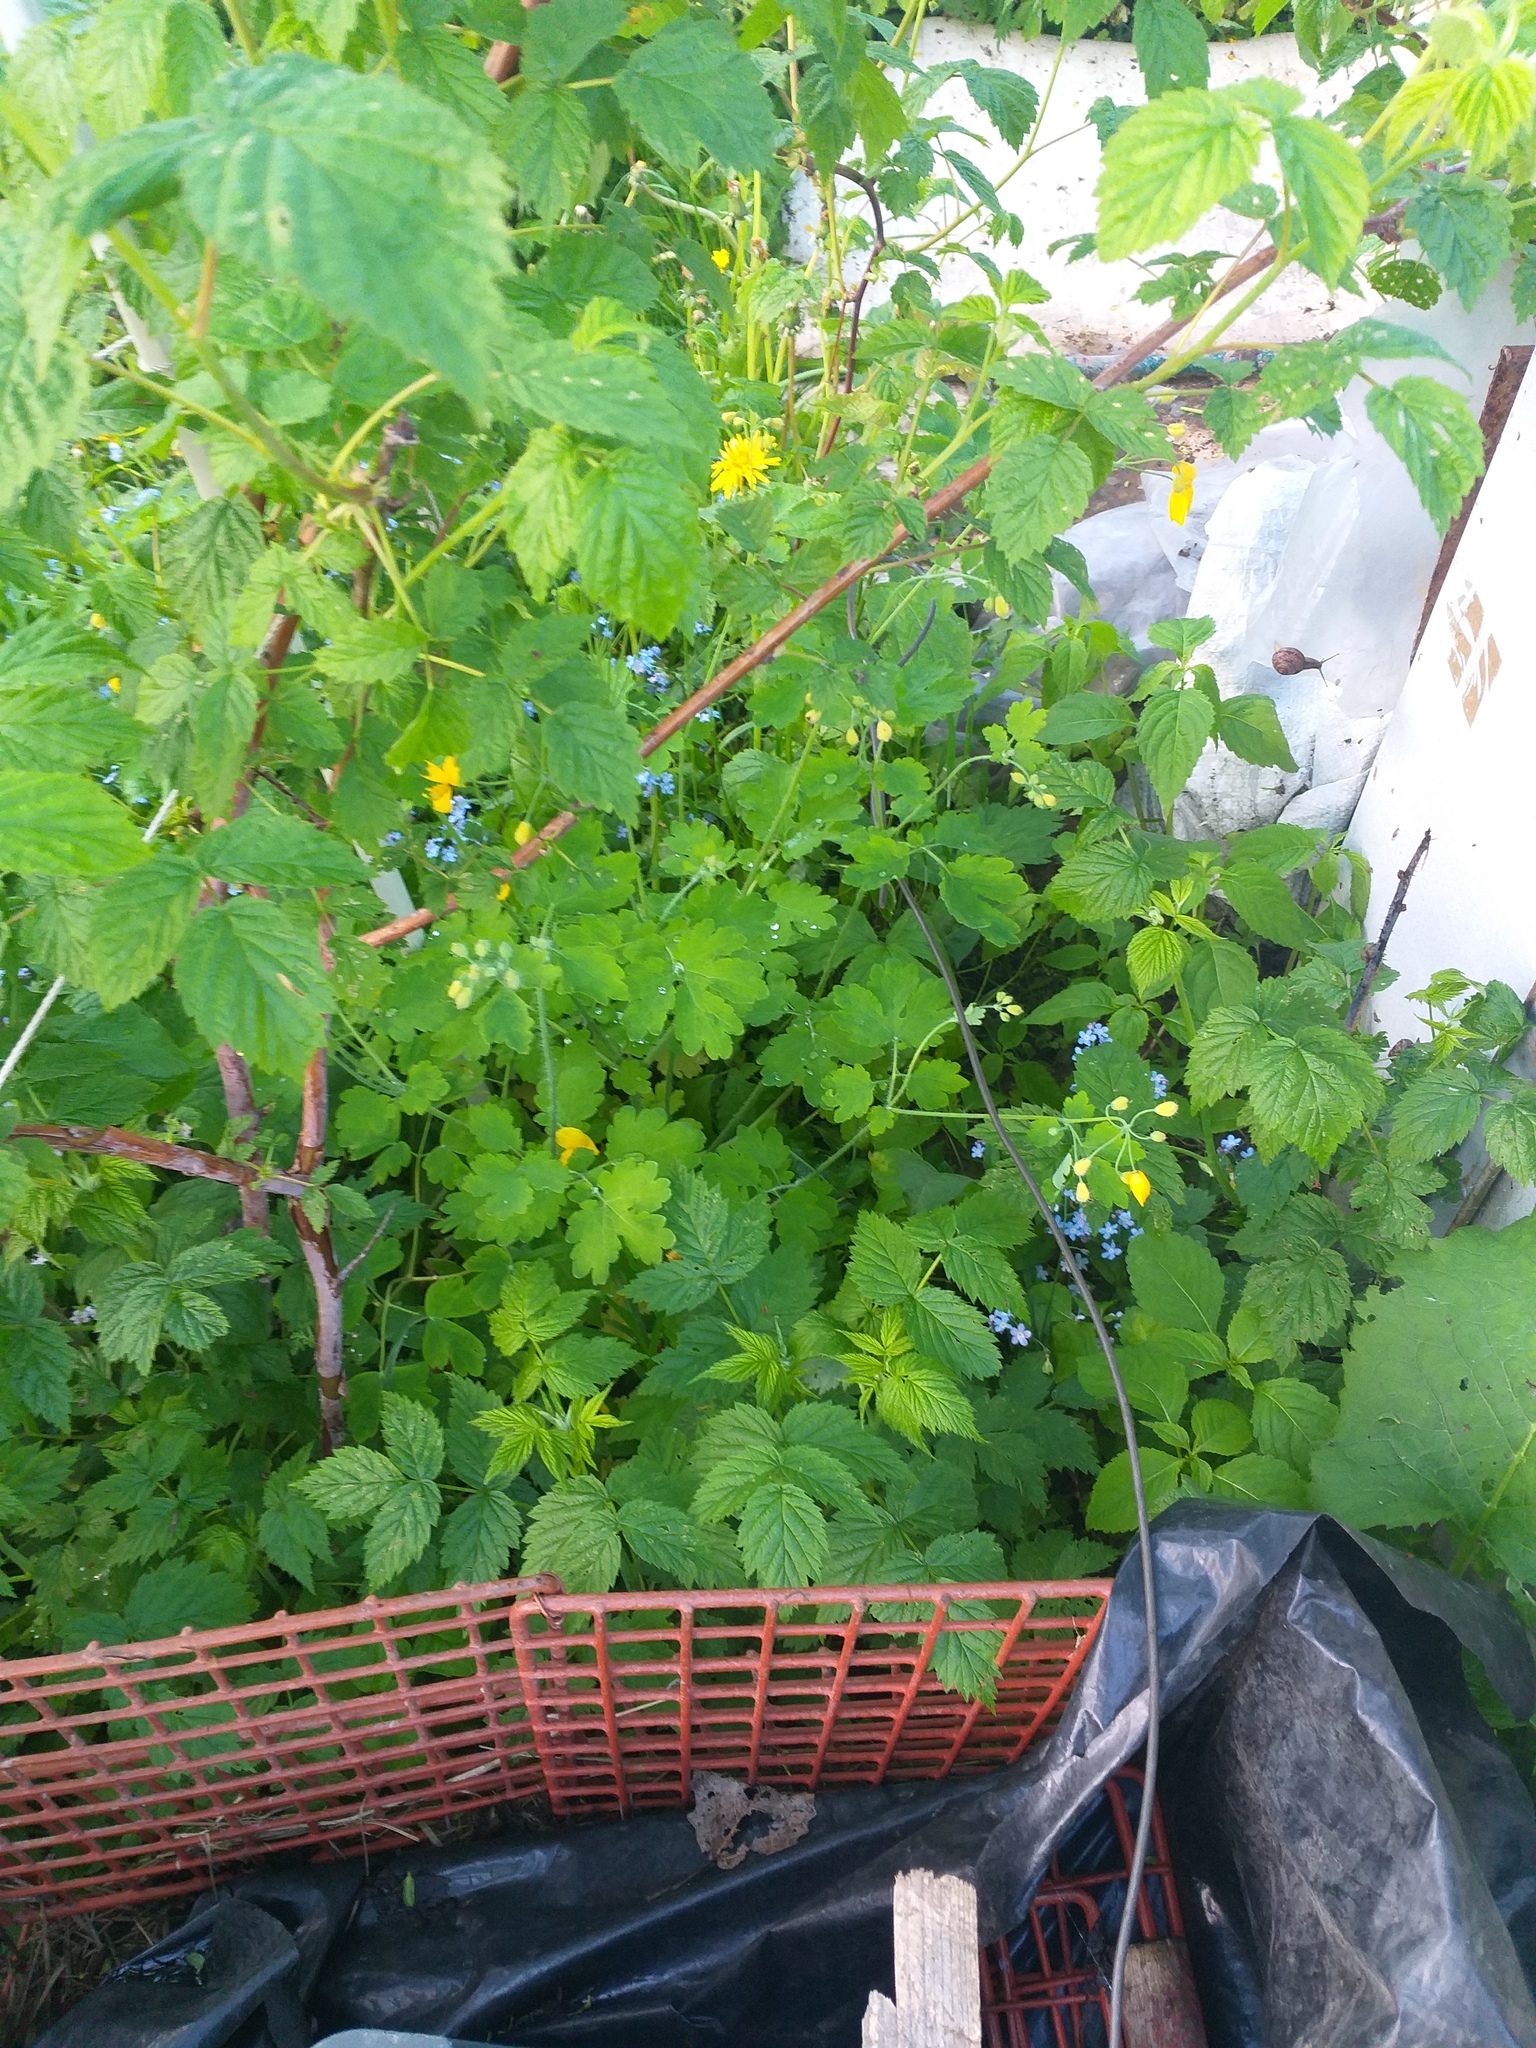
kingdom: Plantae
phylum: Tracheophyta
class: Magnoliopsida
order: Ranunculales
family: Papaveraceae
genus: Chelidonium
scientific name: Chelidonium majus
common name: Greater celandine
